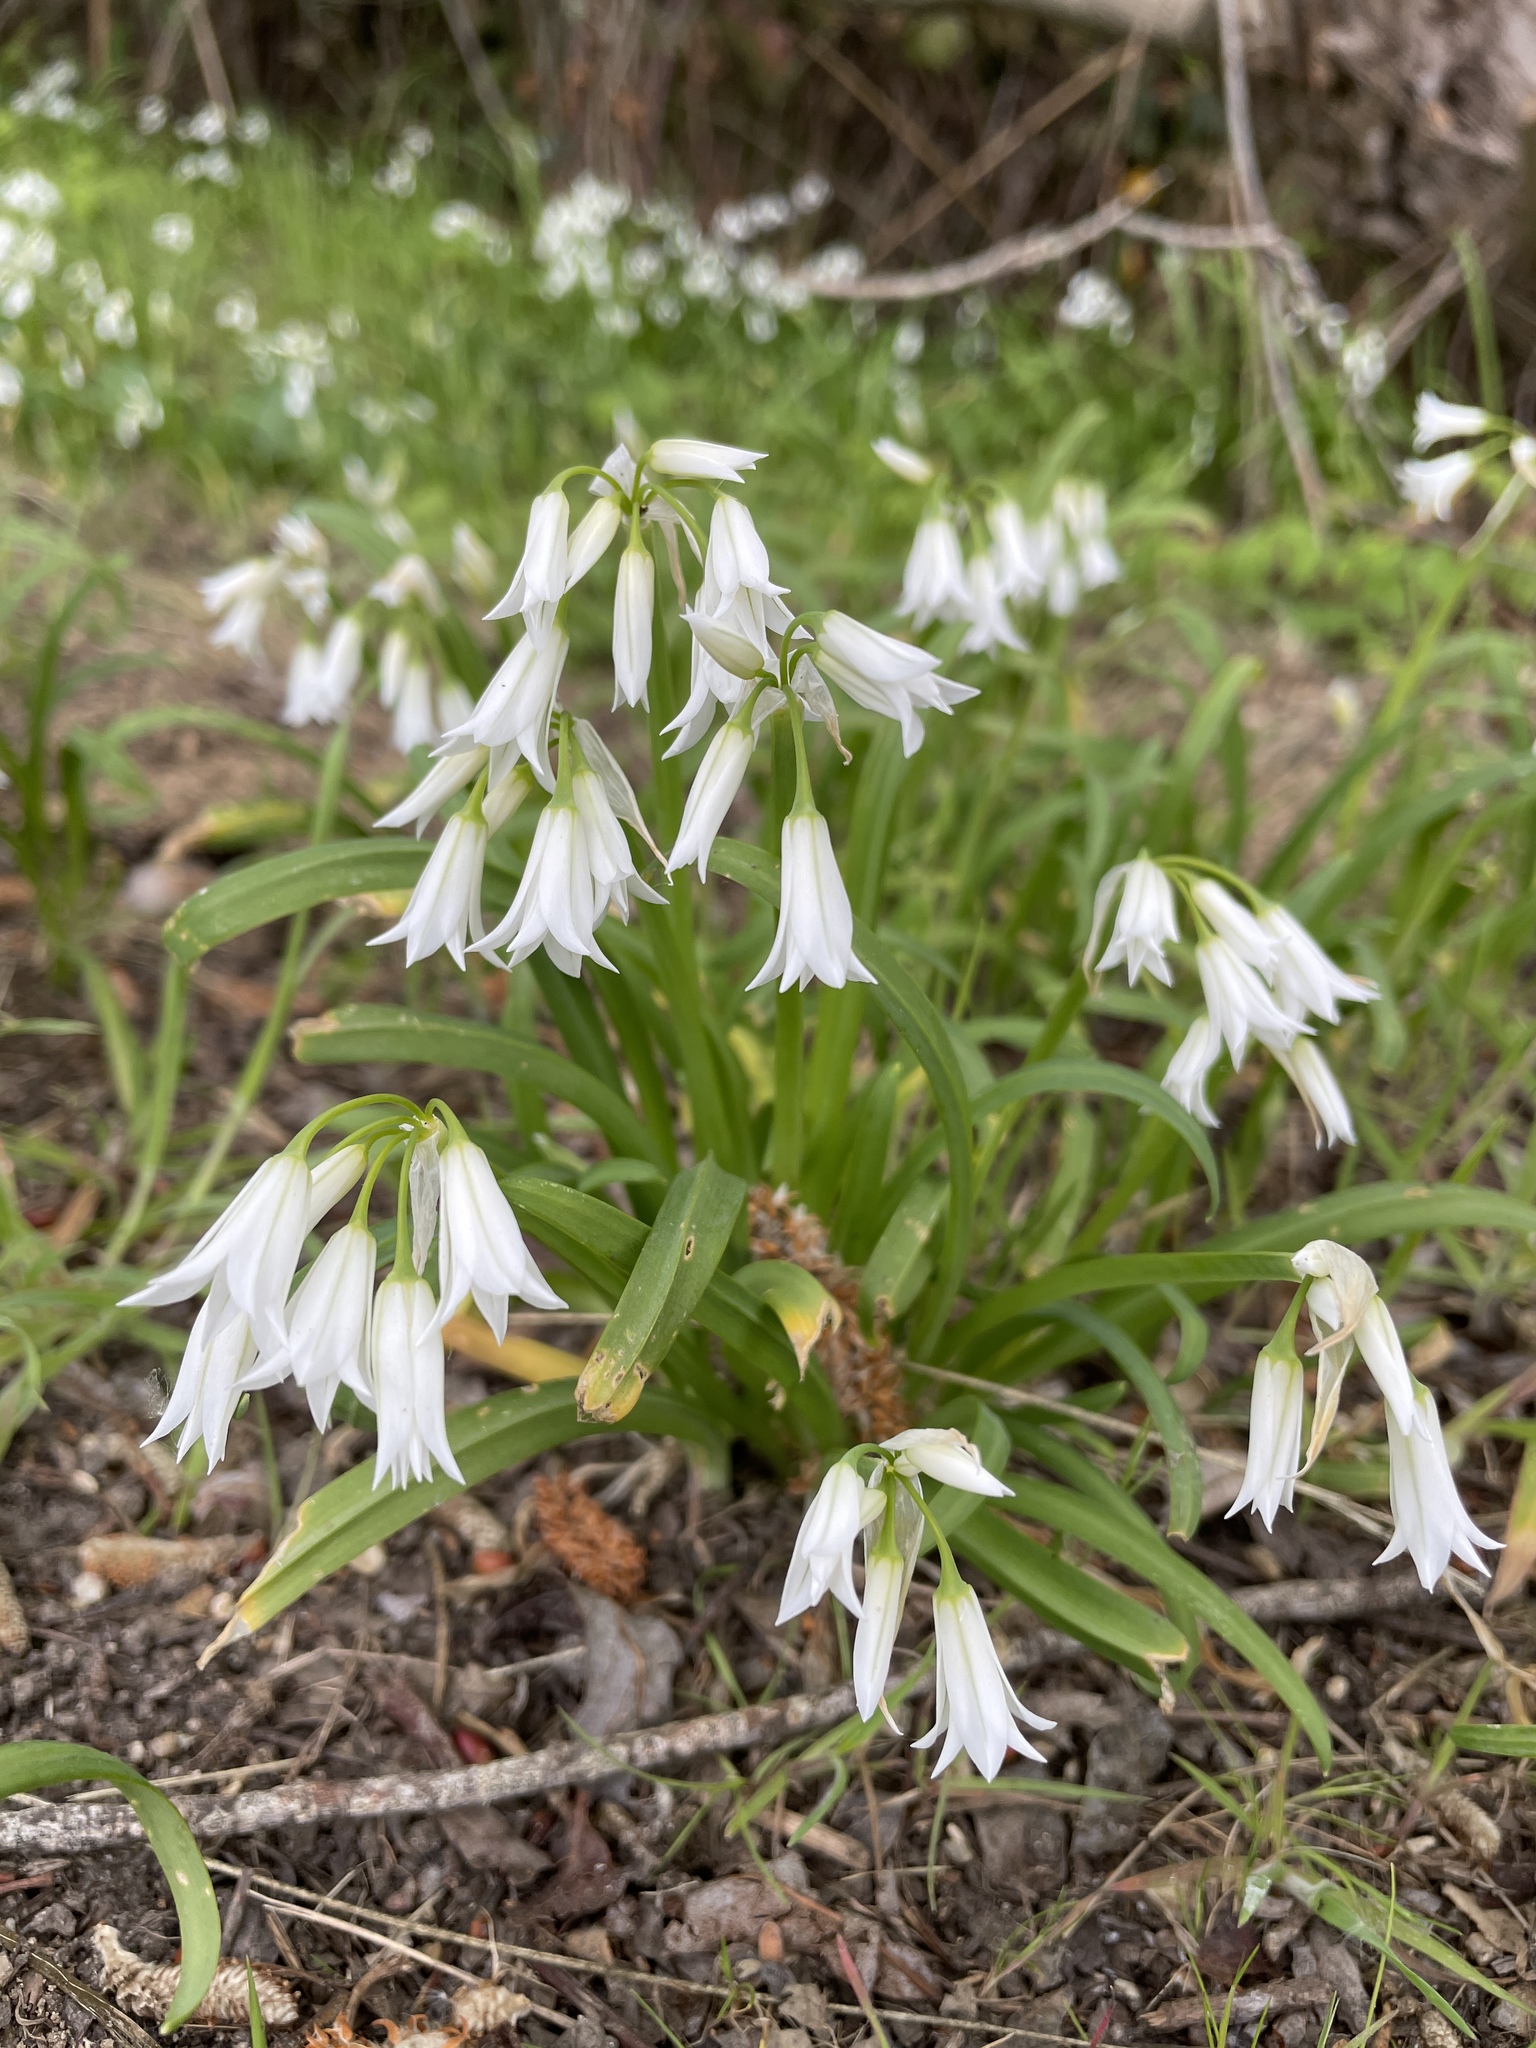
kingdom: Plantae
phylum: Tracheophyta
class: Liliopsida
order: Asparagales
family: Amaryllidaceae
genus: Allium
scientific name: Allium triquetrum
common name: Three-cornered garlic
